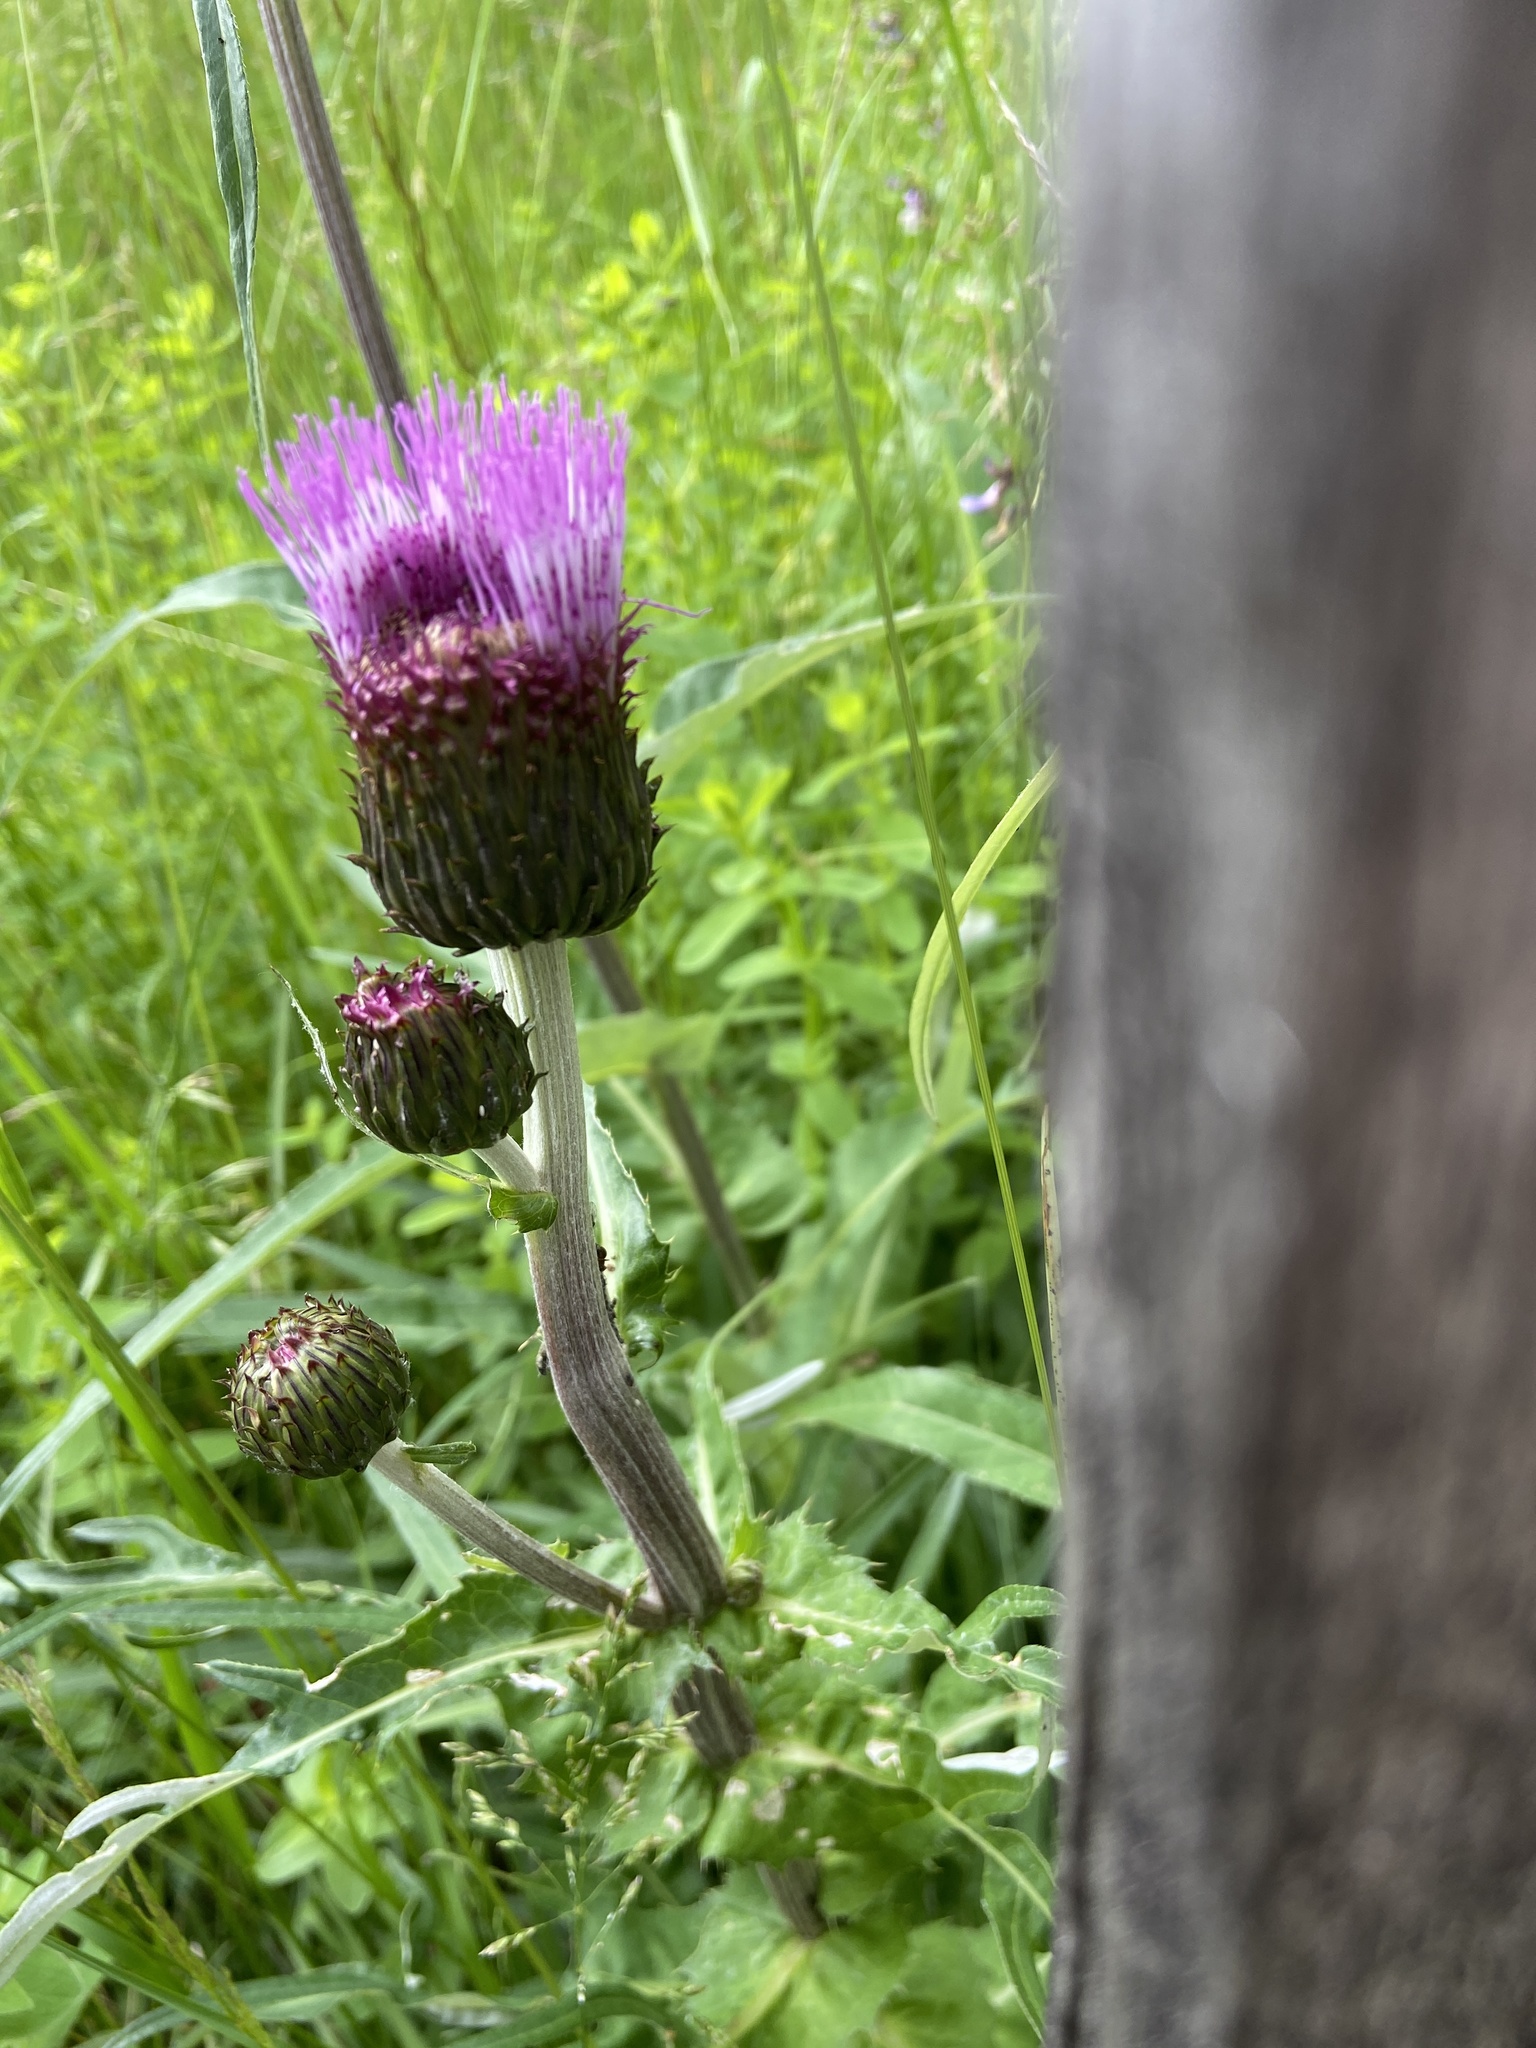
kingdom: Plantae
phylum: Tracheophyta
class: Magnoliopsida
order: Asterales
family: Asteraceae
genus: Cirsium
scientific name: Cirsium heterophyllum
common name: Melancholy thistle
